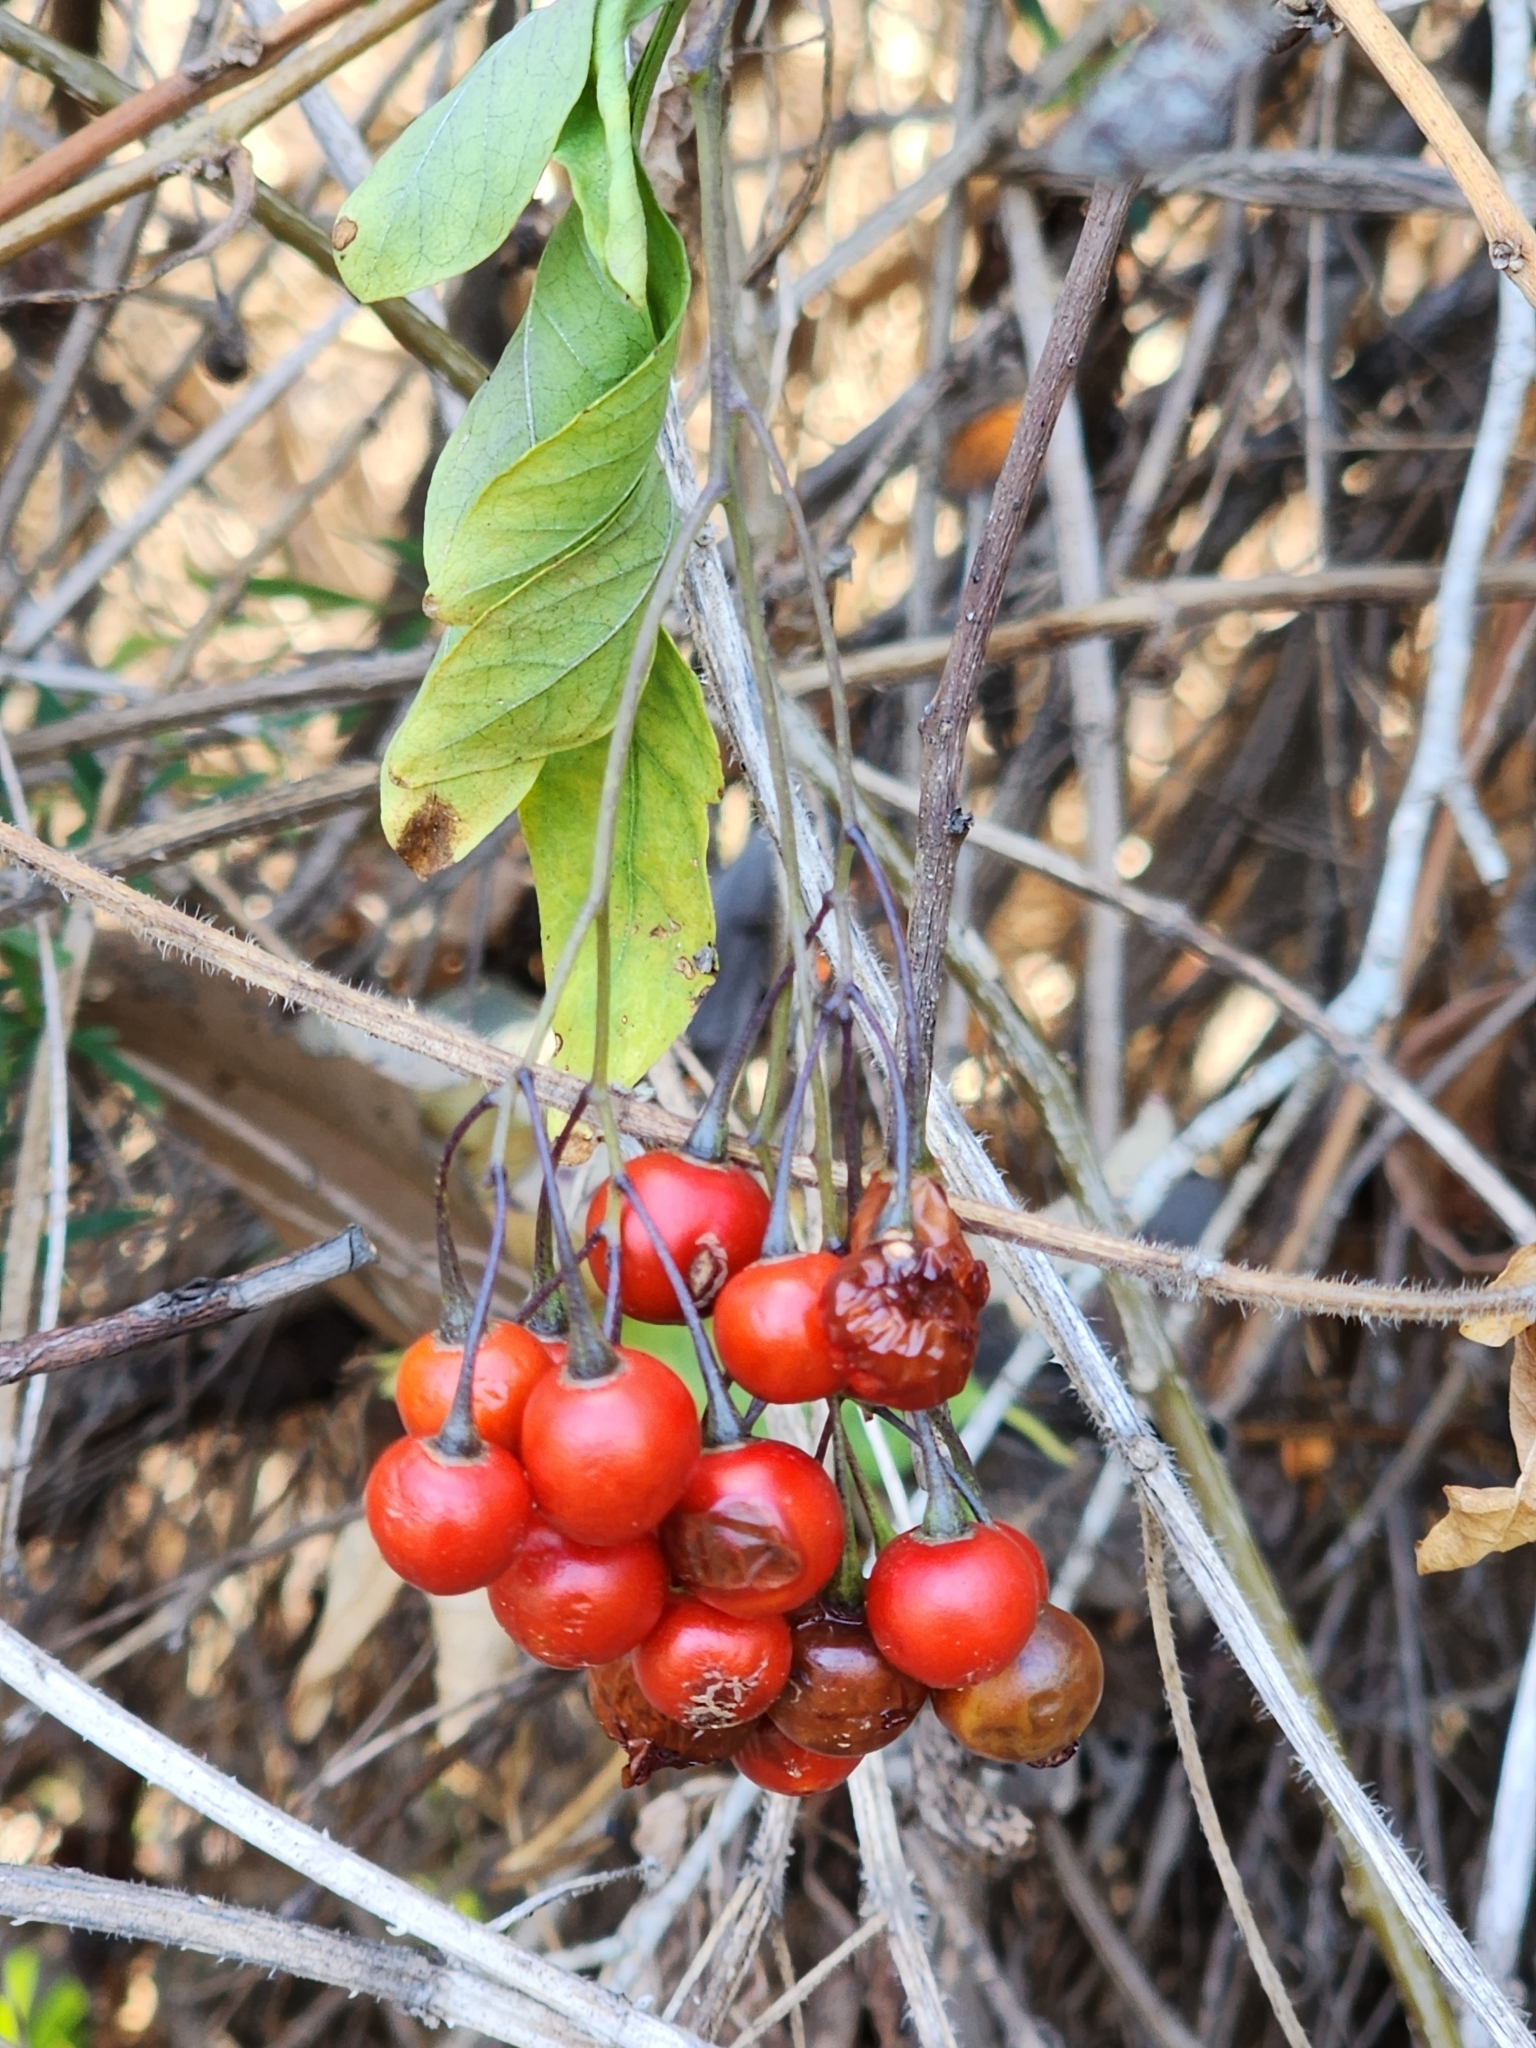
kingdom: Plantae
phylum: Tracheophyta
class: Magnoliopsida
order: Solanales
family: Solanaceae
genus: Solanum
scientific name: Solanum seaforthianum
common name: Brazilian nightshade
